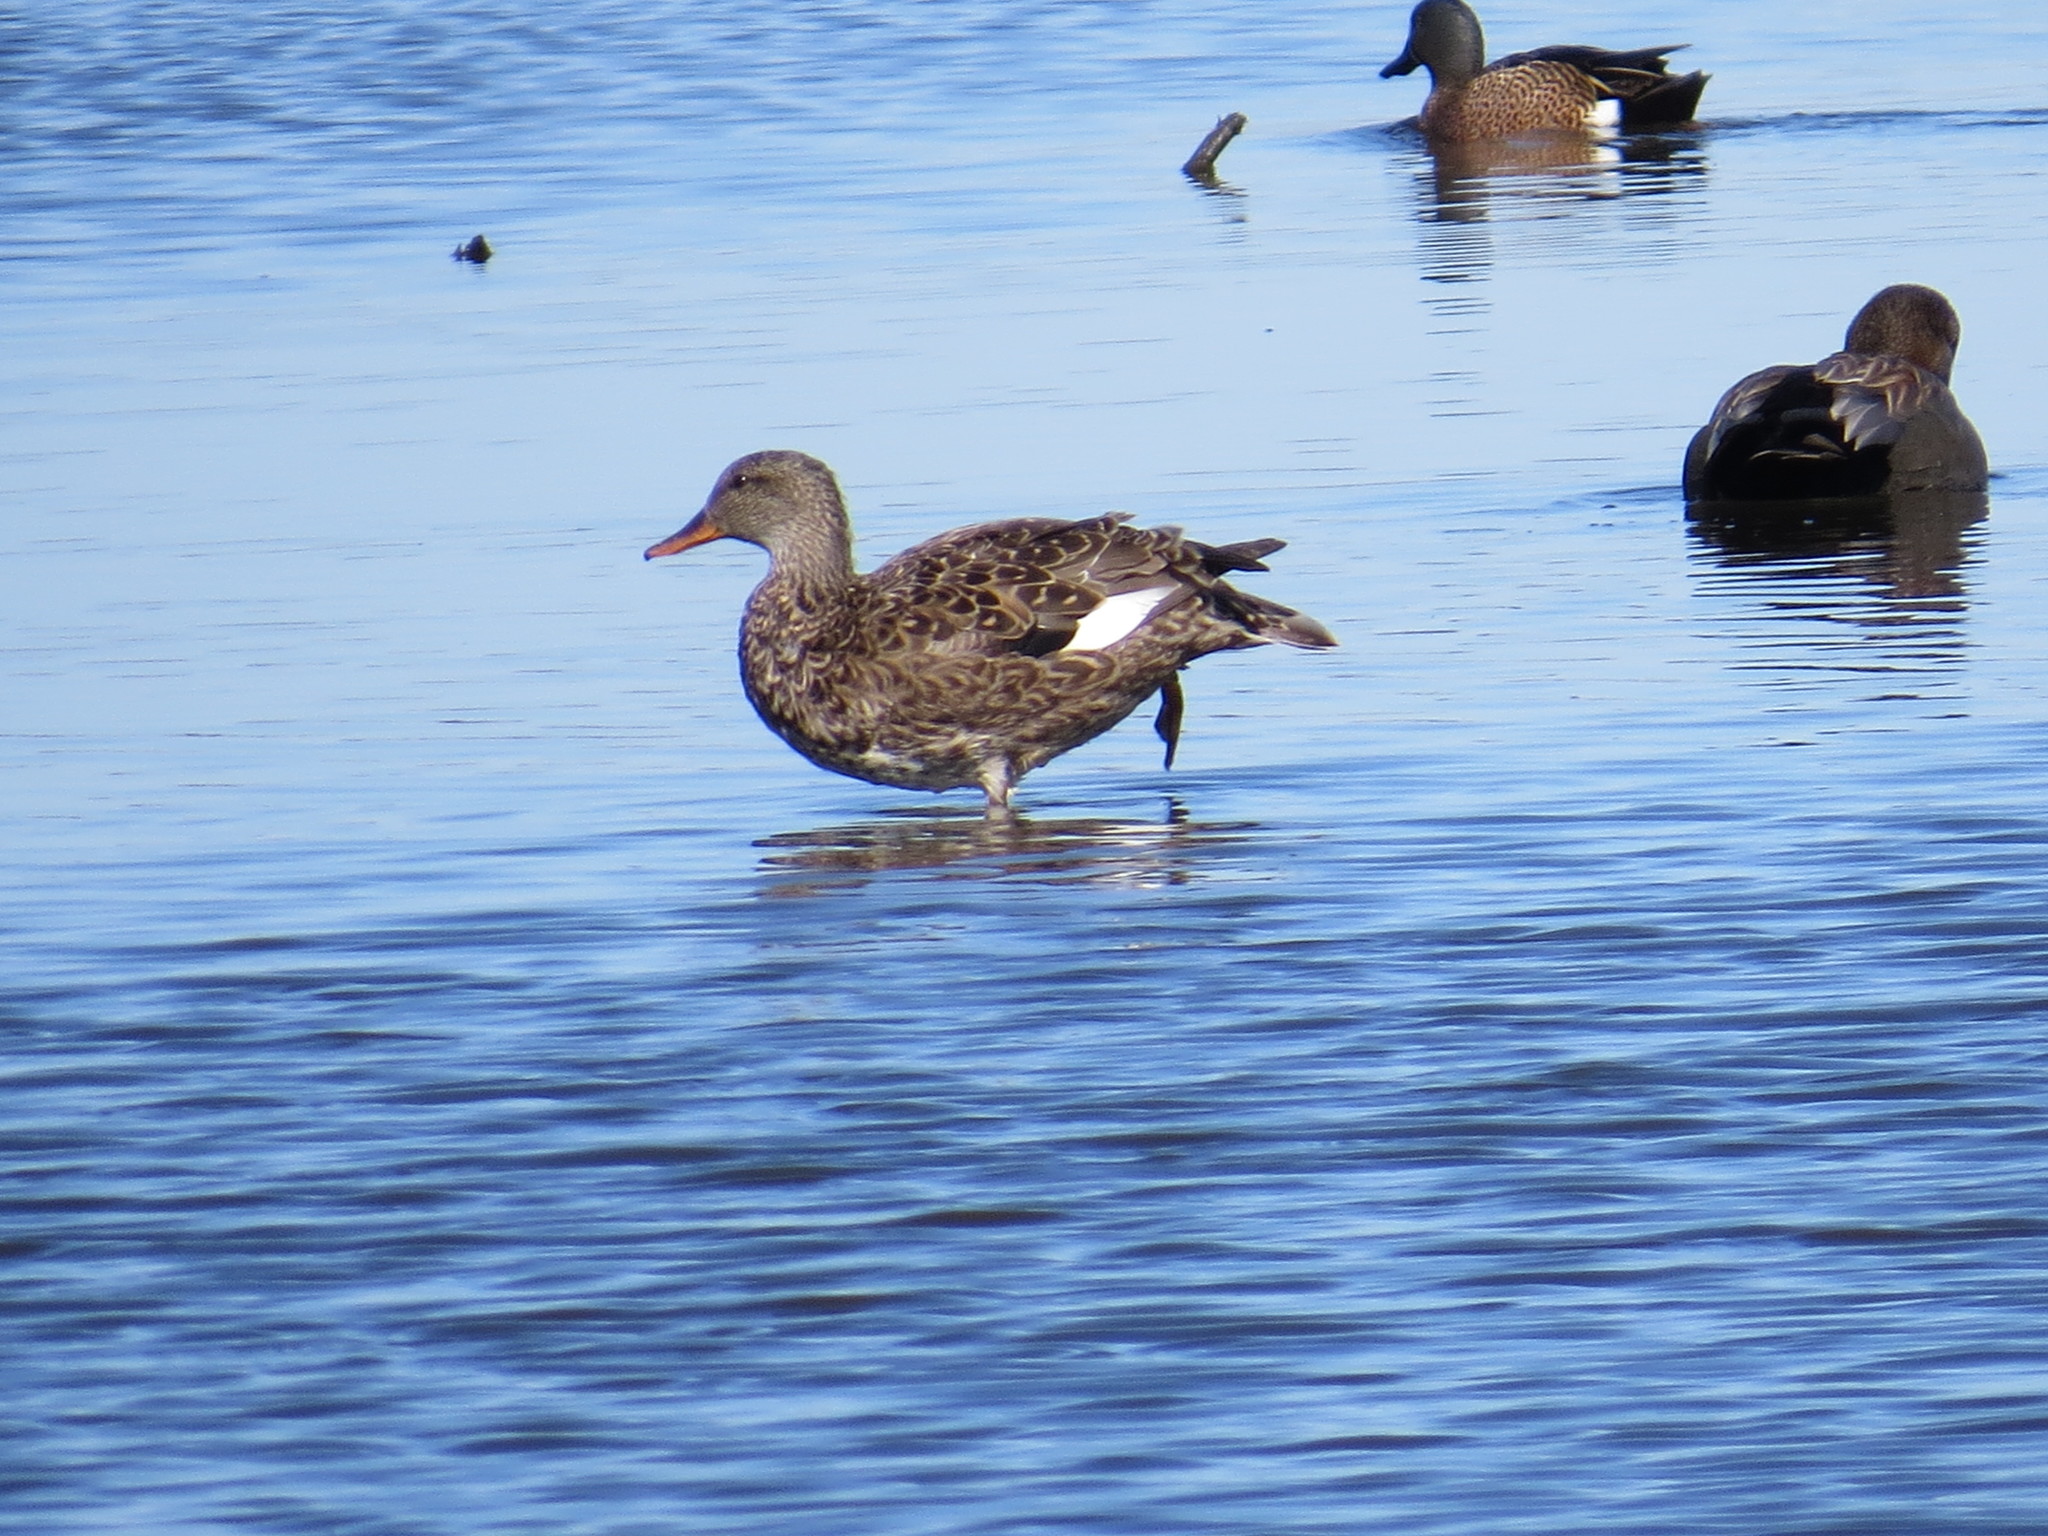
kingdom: Animalia
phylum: Chordata
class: Aves
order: Anseriformes
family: Anatidae
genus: Mareca
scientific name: Mareca strepera
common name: Gadwall
